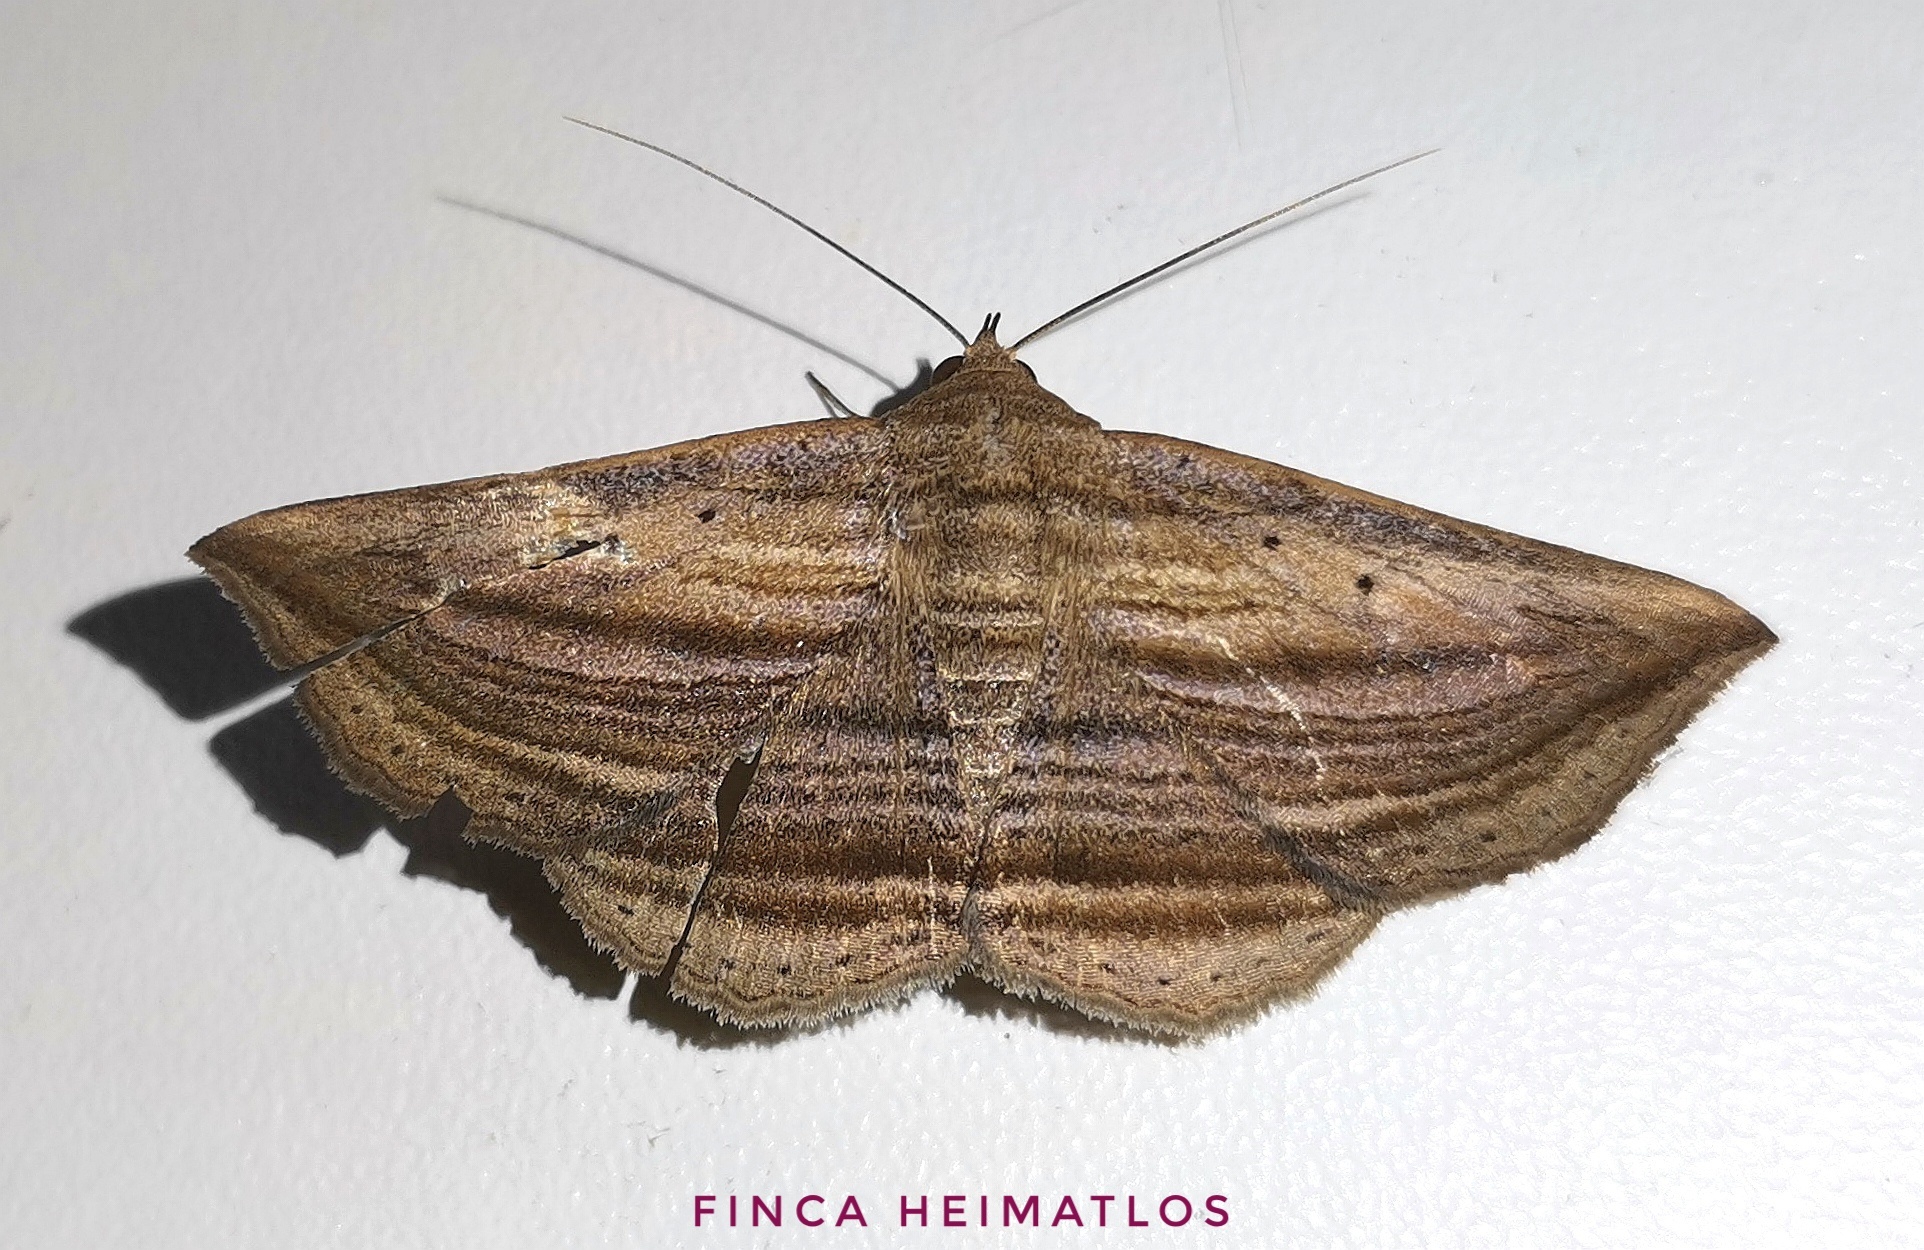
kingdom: Animalia
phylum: Arthropoda
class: Insecta
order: Lepidoptera
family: Erebidae
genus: Itomia
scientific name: Itomia multilinea
